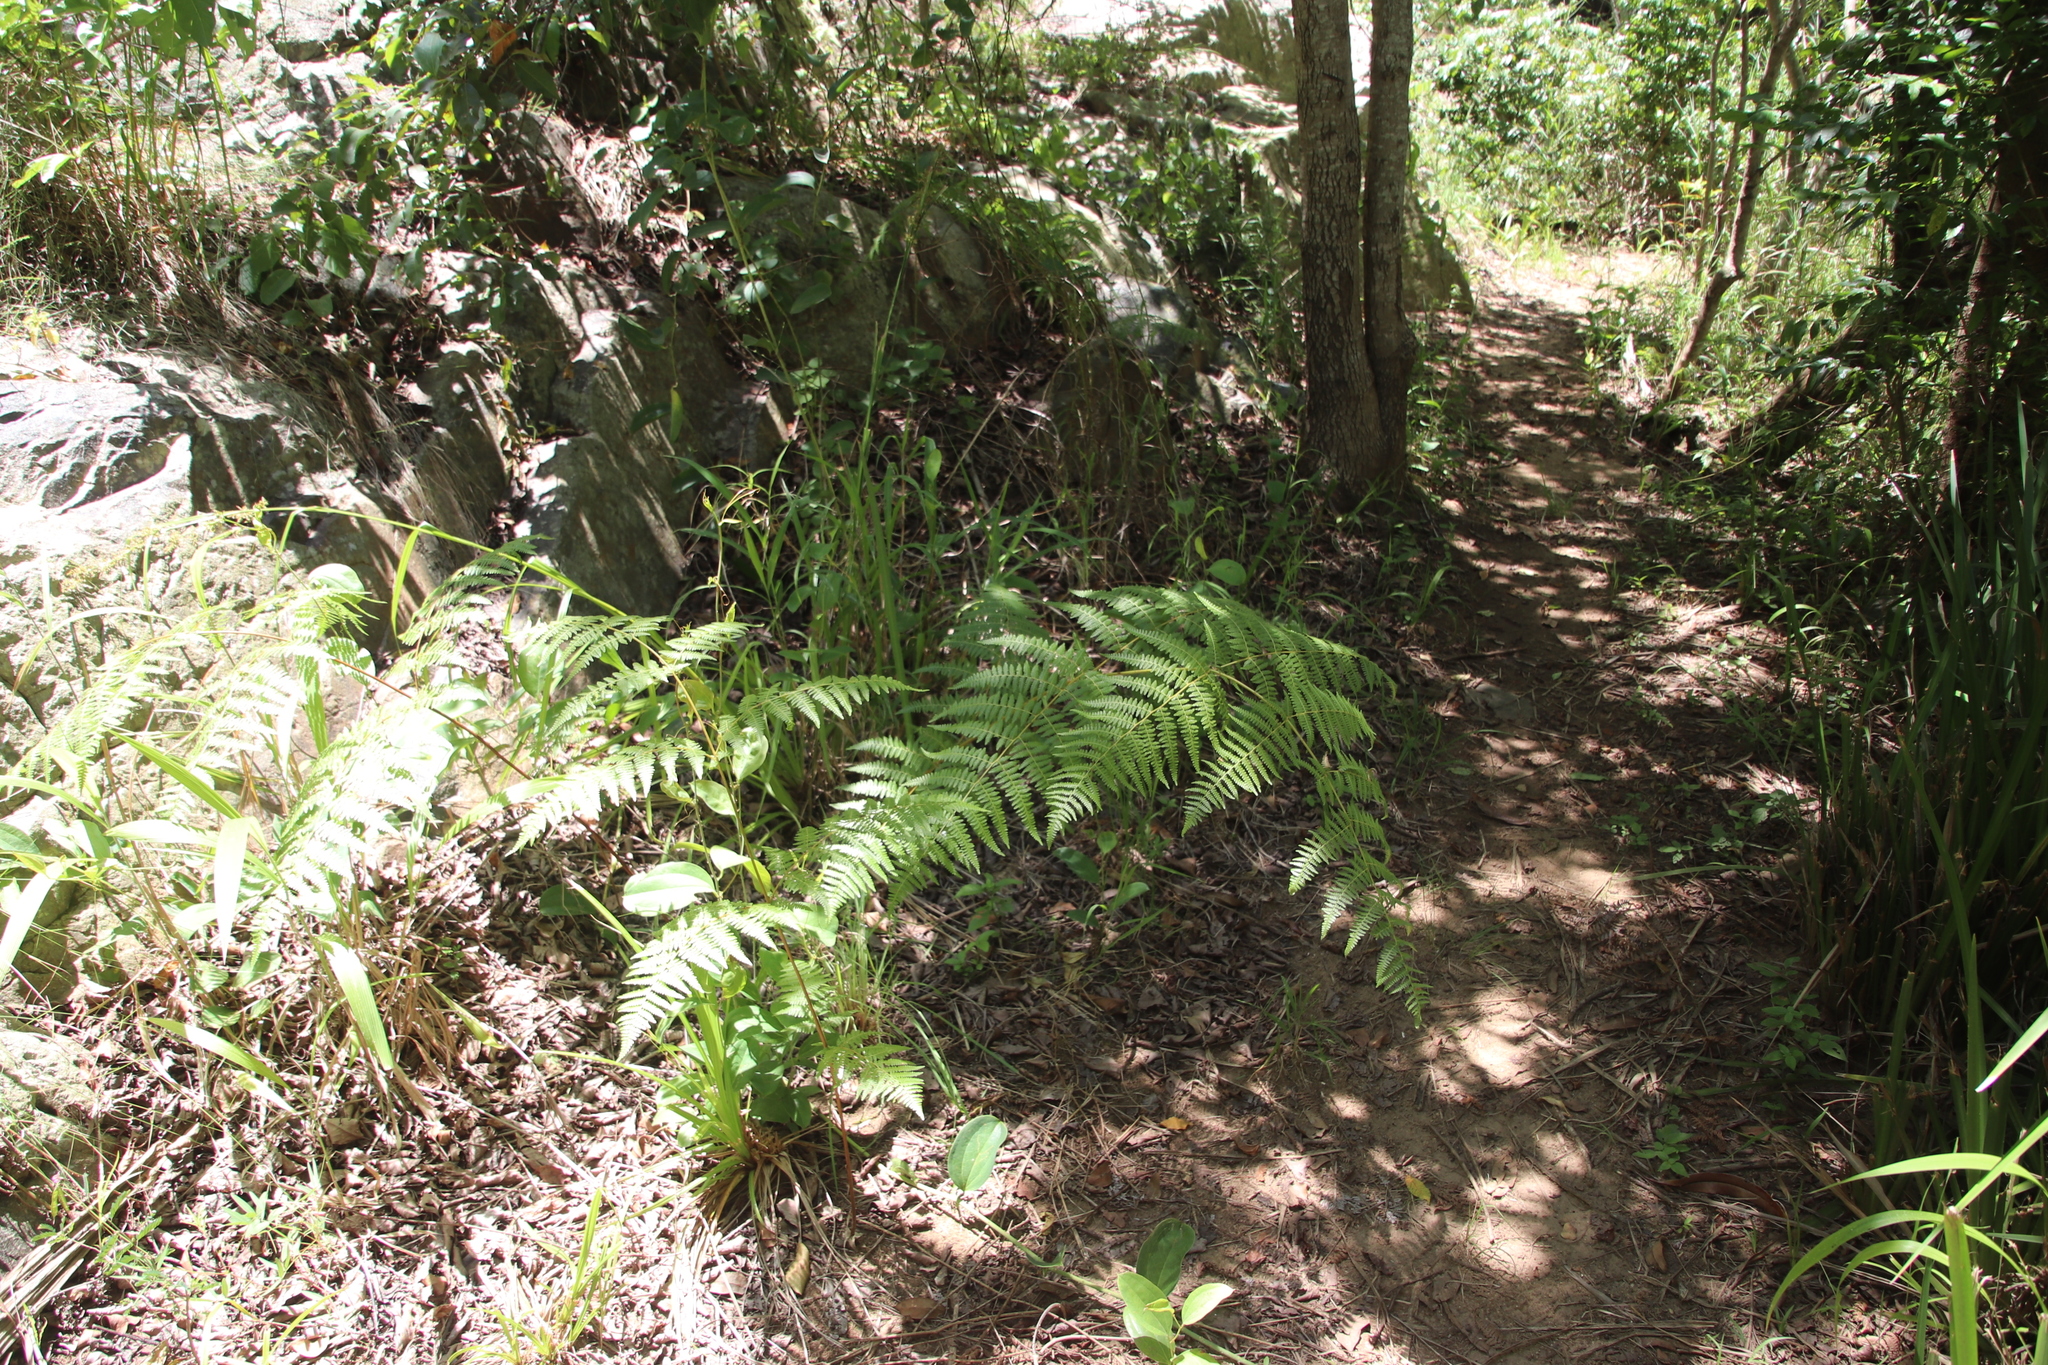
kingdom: Plantae
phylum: Tracheophyta
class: Polypodiopsida
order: Polypodiales
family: Dennstaedtiaceae
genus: Pteridium
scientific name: Pteridium aquilinum
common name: Bracken
